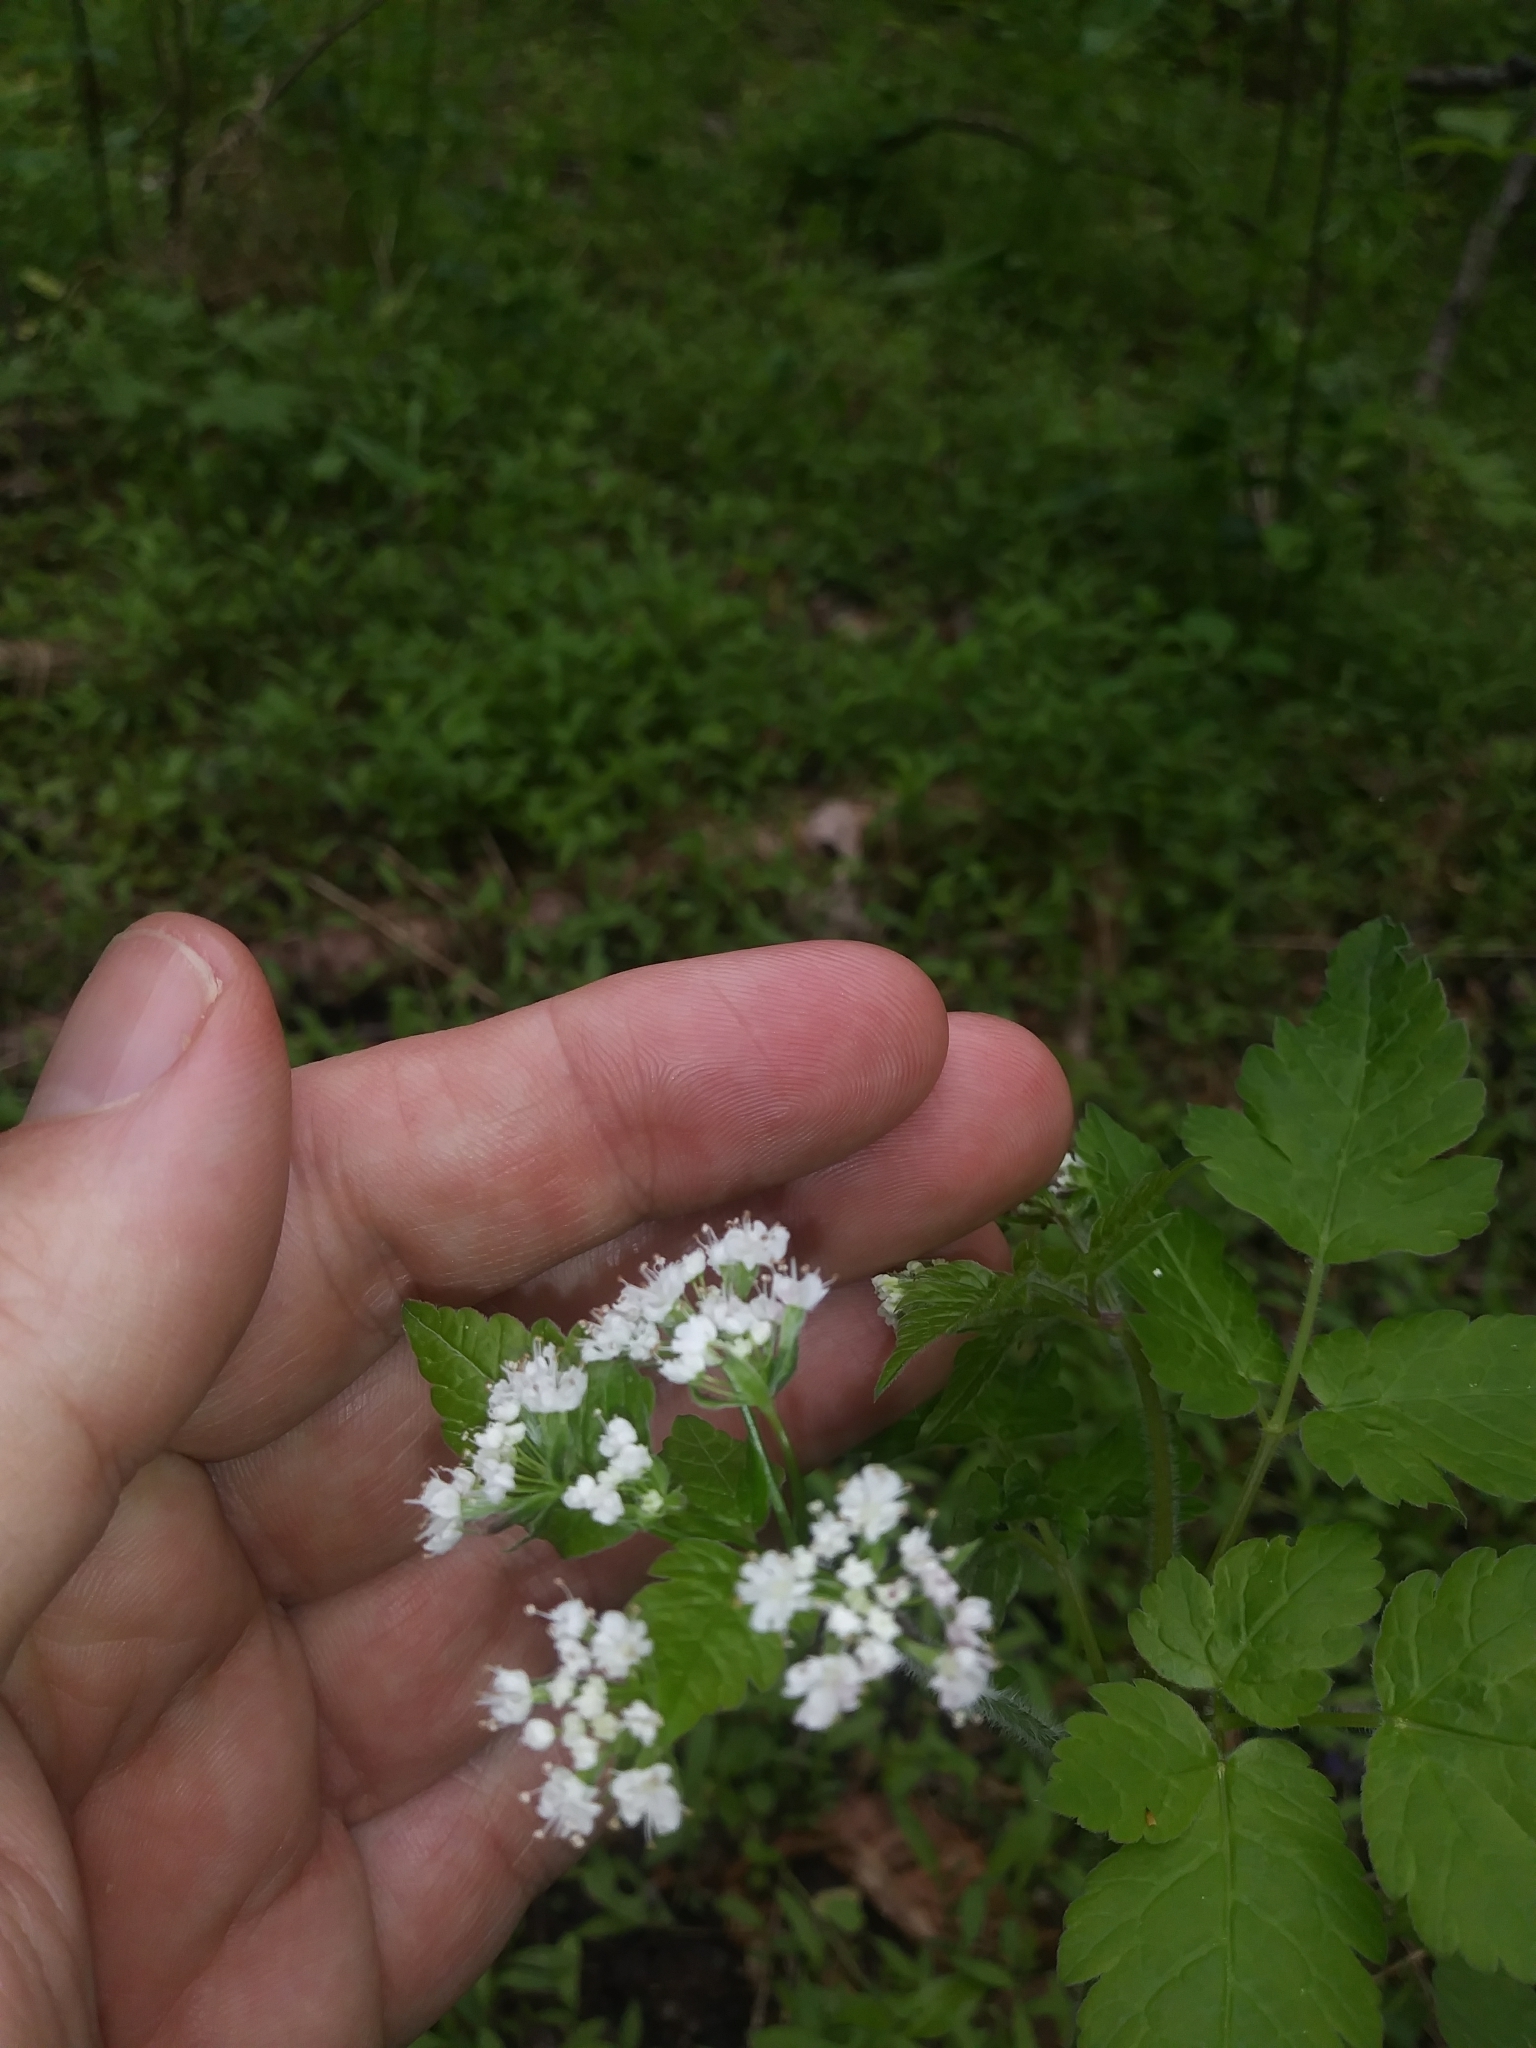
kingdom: Plantae
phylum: Tracheophyta
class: Magnoliopsida
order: Apiales
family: Apiaceae
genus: Osmorhiza
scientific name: Osmorhiza longistylis
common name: Smooth sweet cicely
